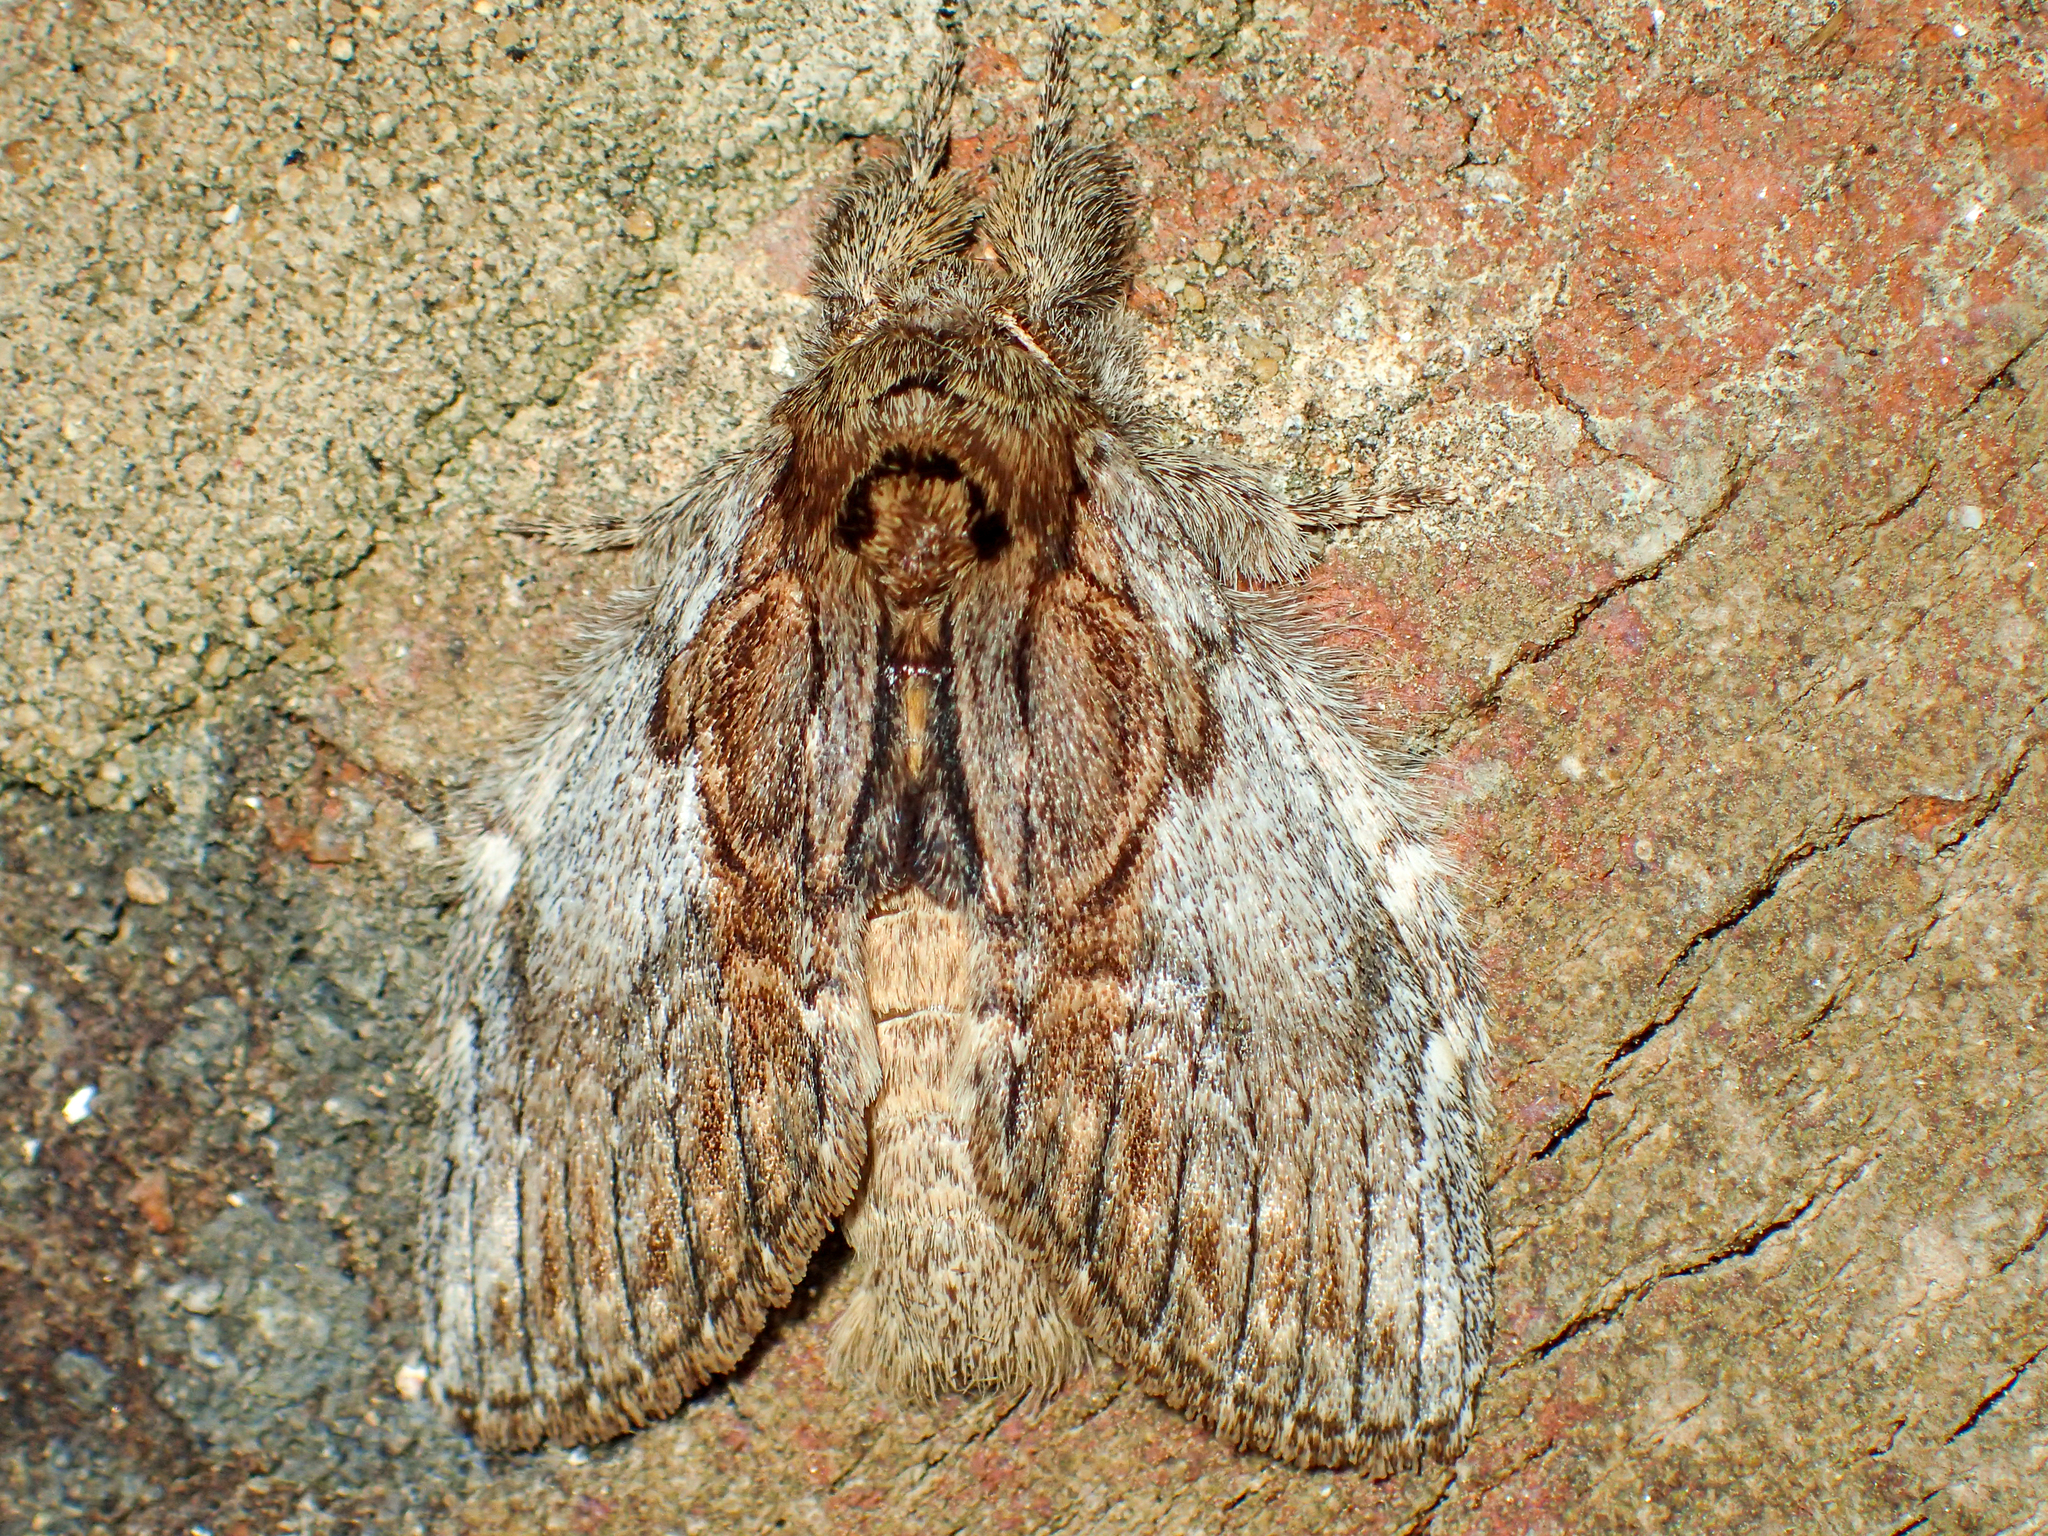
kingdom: Animalia
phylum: Arthropoda
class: Insecta
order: Lepidoptera
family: Notodontidae
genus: Peridea
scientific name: Peridea basitriens
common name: Oval-based prominent
